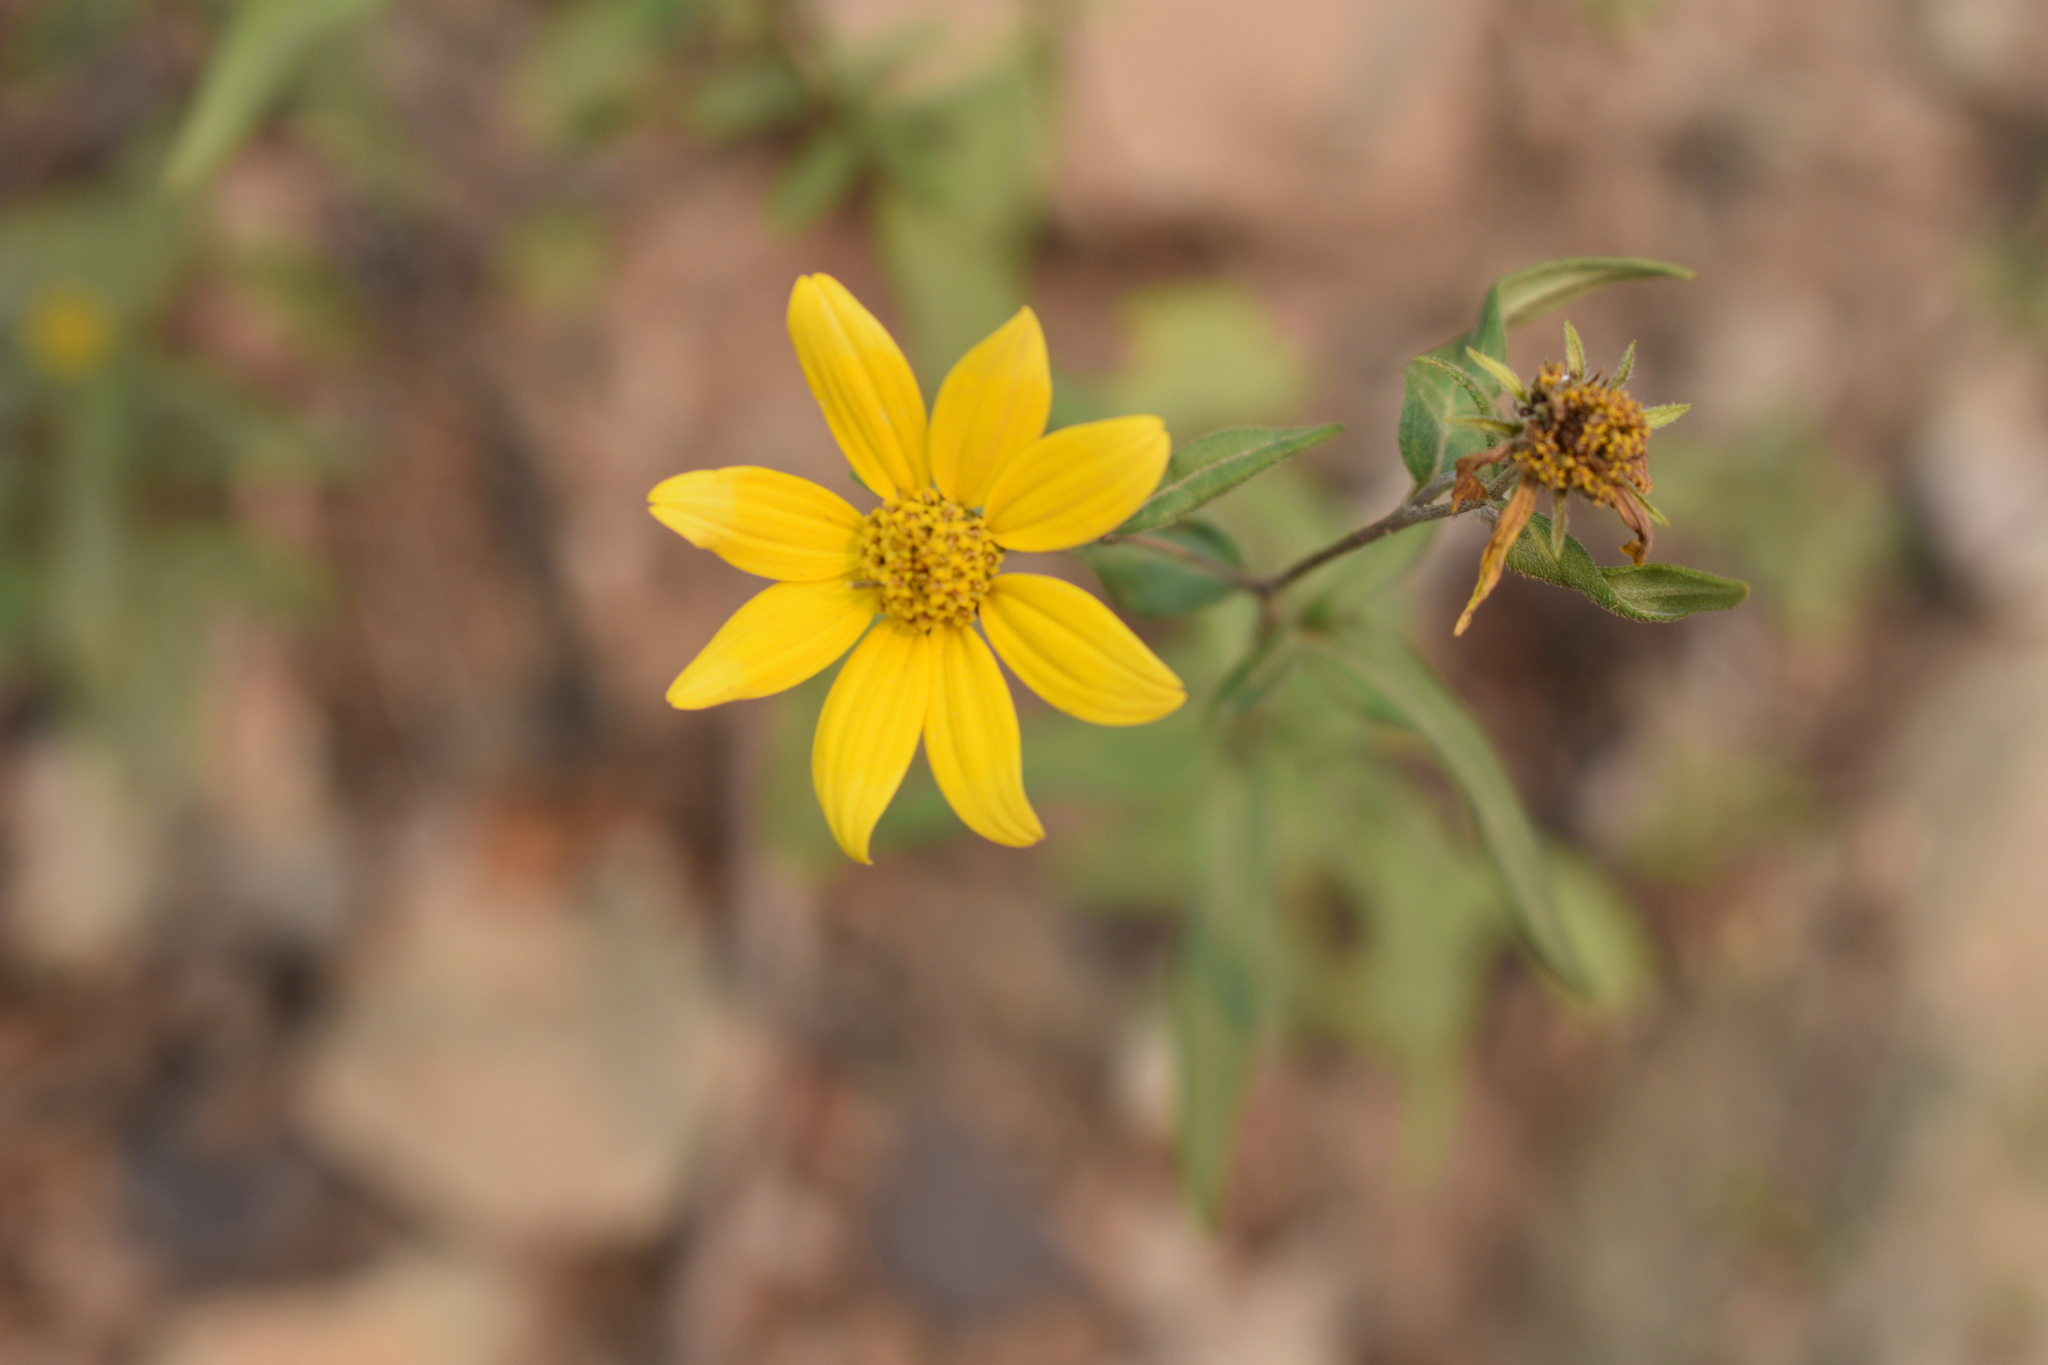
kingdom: Plantae
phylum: Tracheophyta
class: Magnoliopsida
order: Asterales
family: Asteraceae
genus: Heliomeris
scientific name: Heliomeris multiflora
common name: Showy goldeneye
